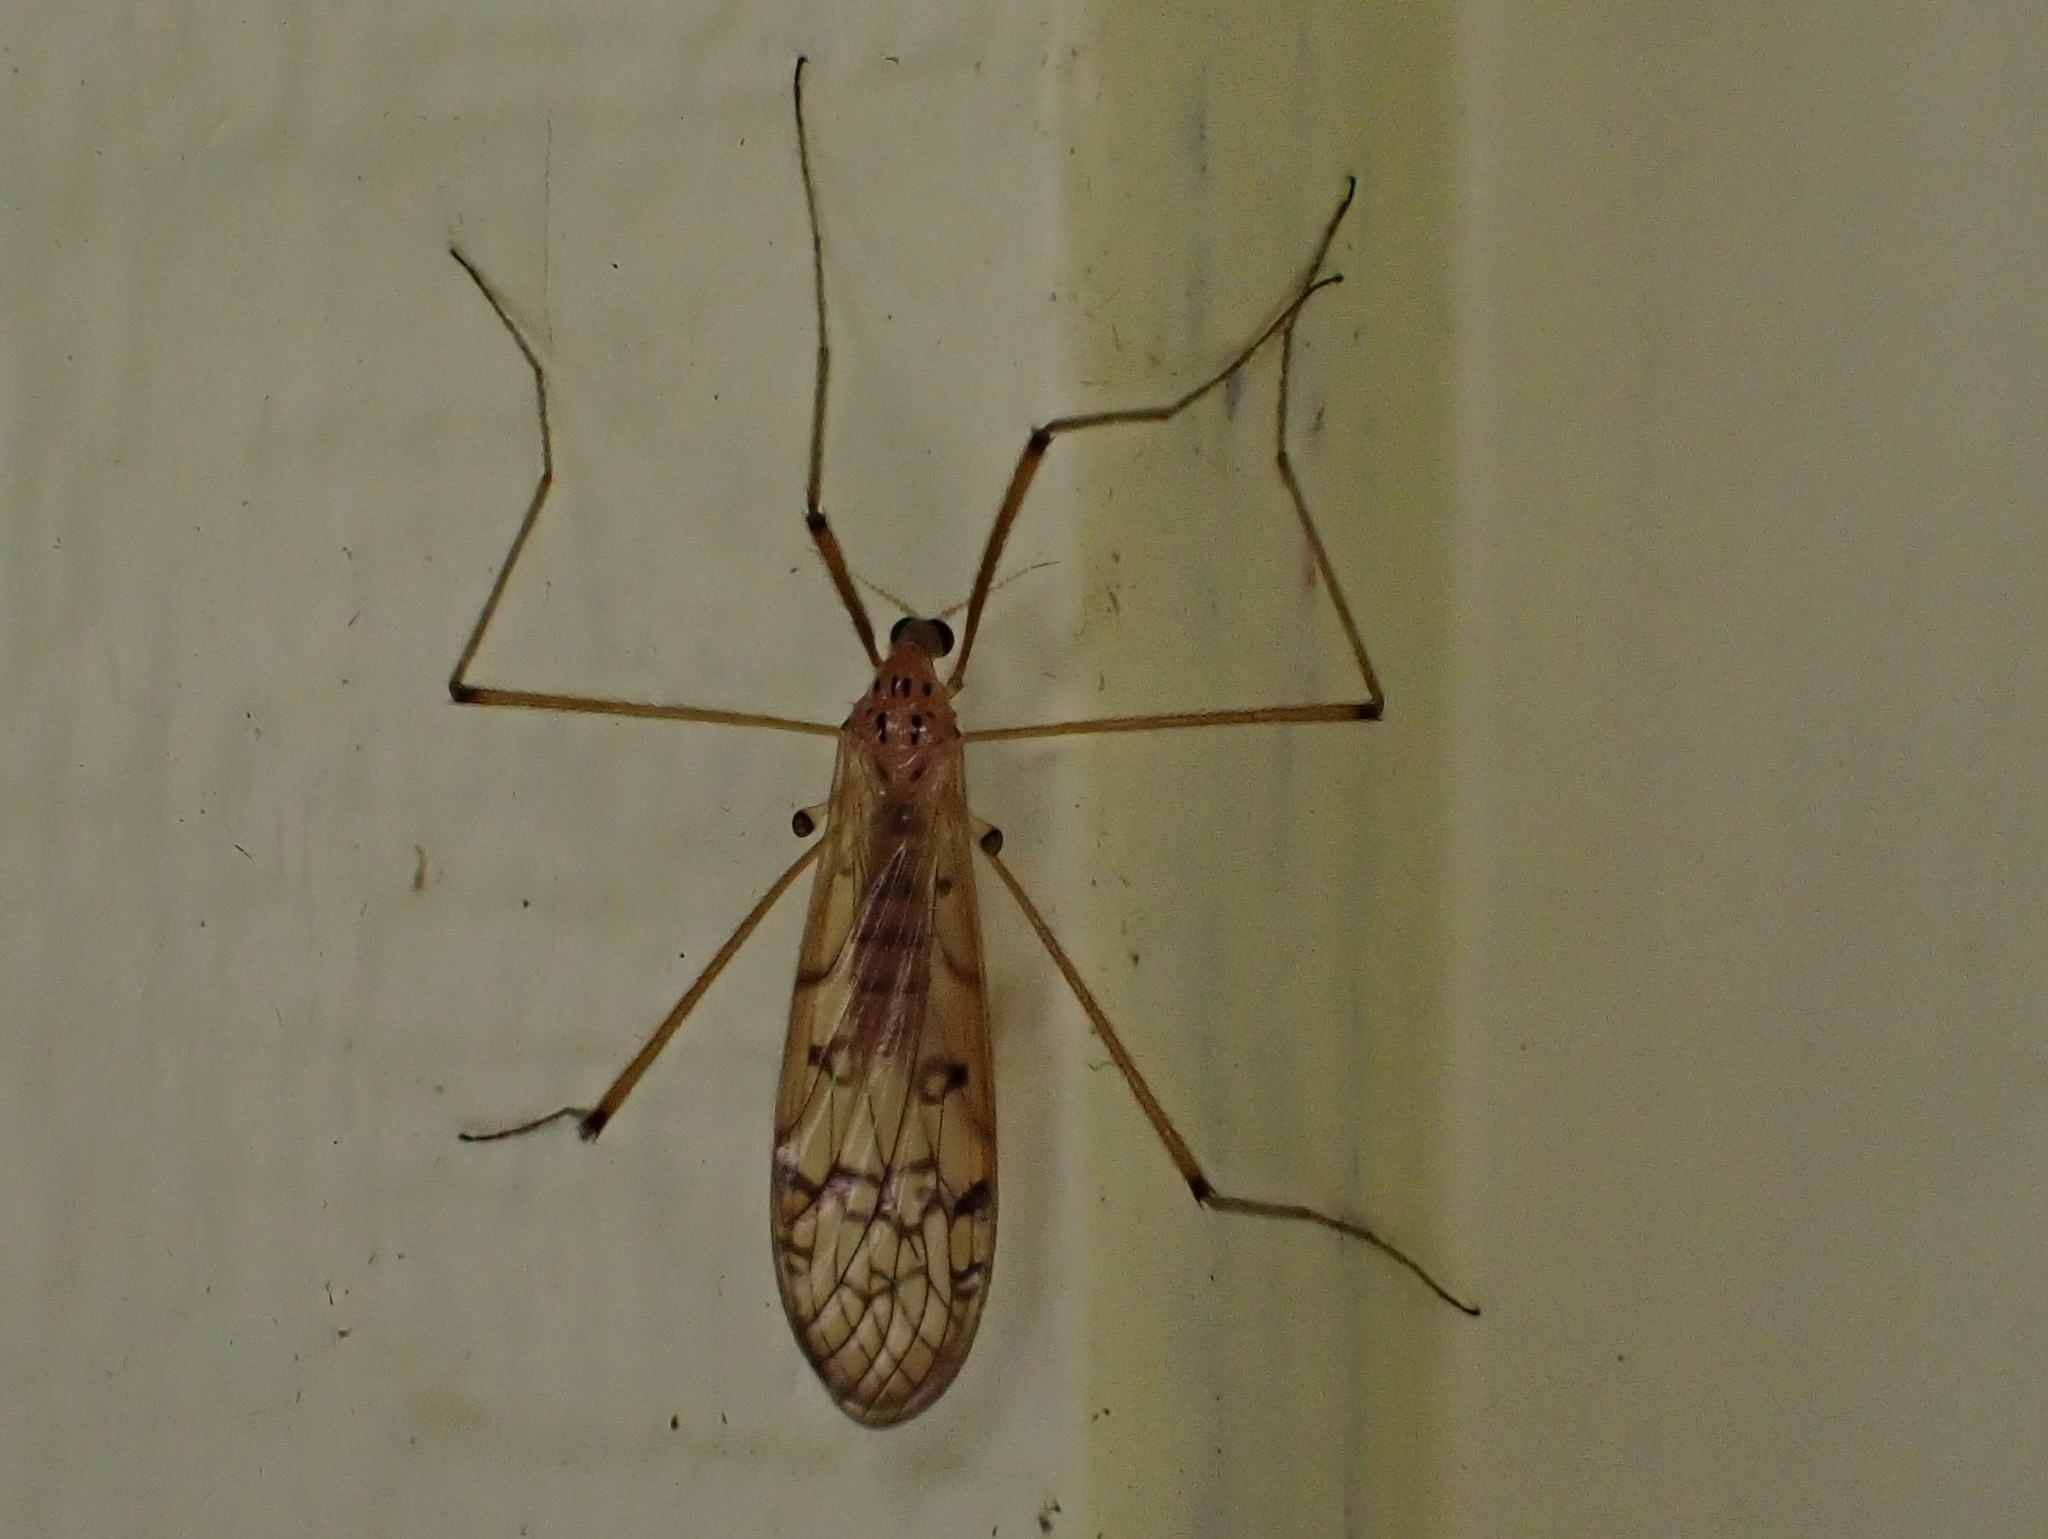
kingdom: Animalia
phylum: Arthropoda
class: Insecta
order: Diptera
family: Limoniidae
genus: Metalimnobia
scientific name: Metalimnobia triocellata
